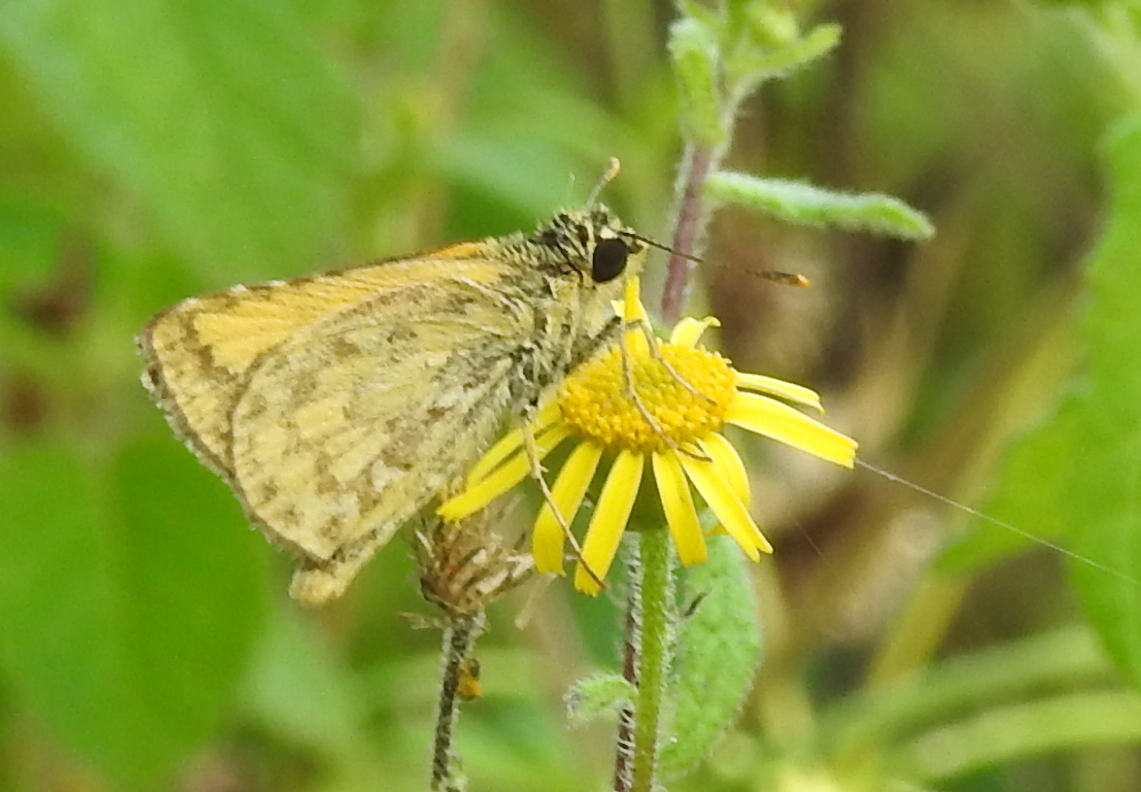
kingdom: Animalia
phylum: Arthropoda
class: Insecta
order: Lepidoptera
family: Hesperiidae
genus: Ampittia
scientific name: Ampittia dioscorides
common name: Common bush hopper
